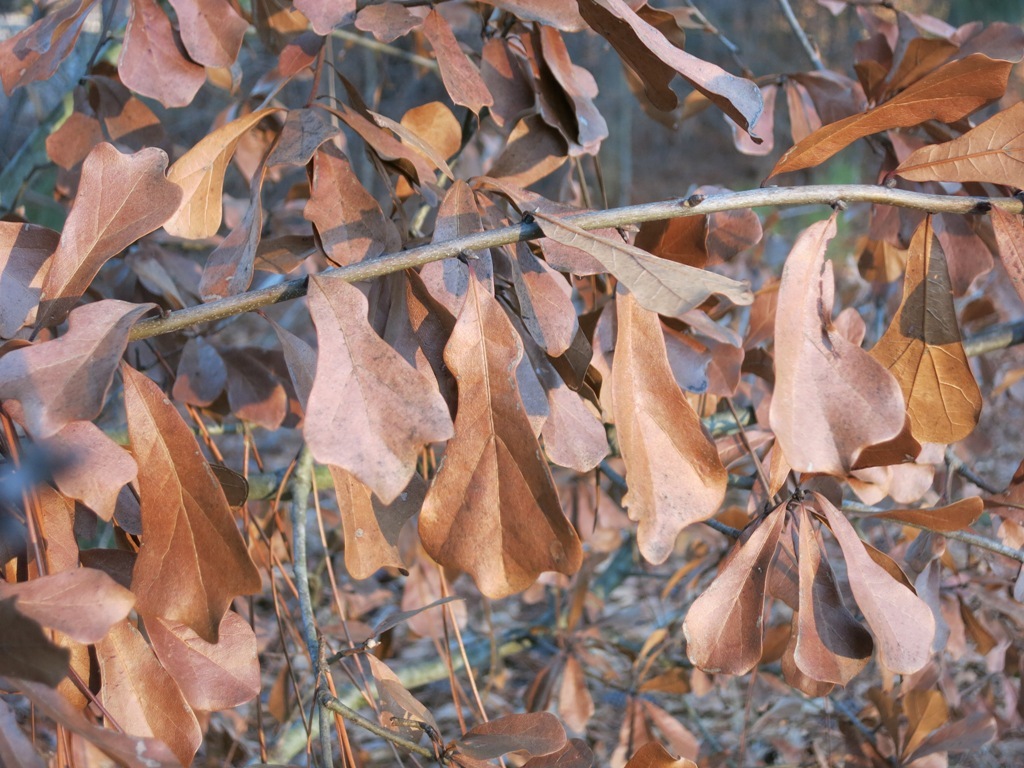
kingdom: Plantae
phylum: Tracheophyta
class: Magnoliopsida
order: Fagales
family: Fagaceae
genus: Quercus
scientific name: Quercus nigra
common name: Water oak
